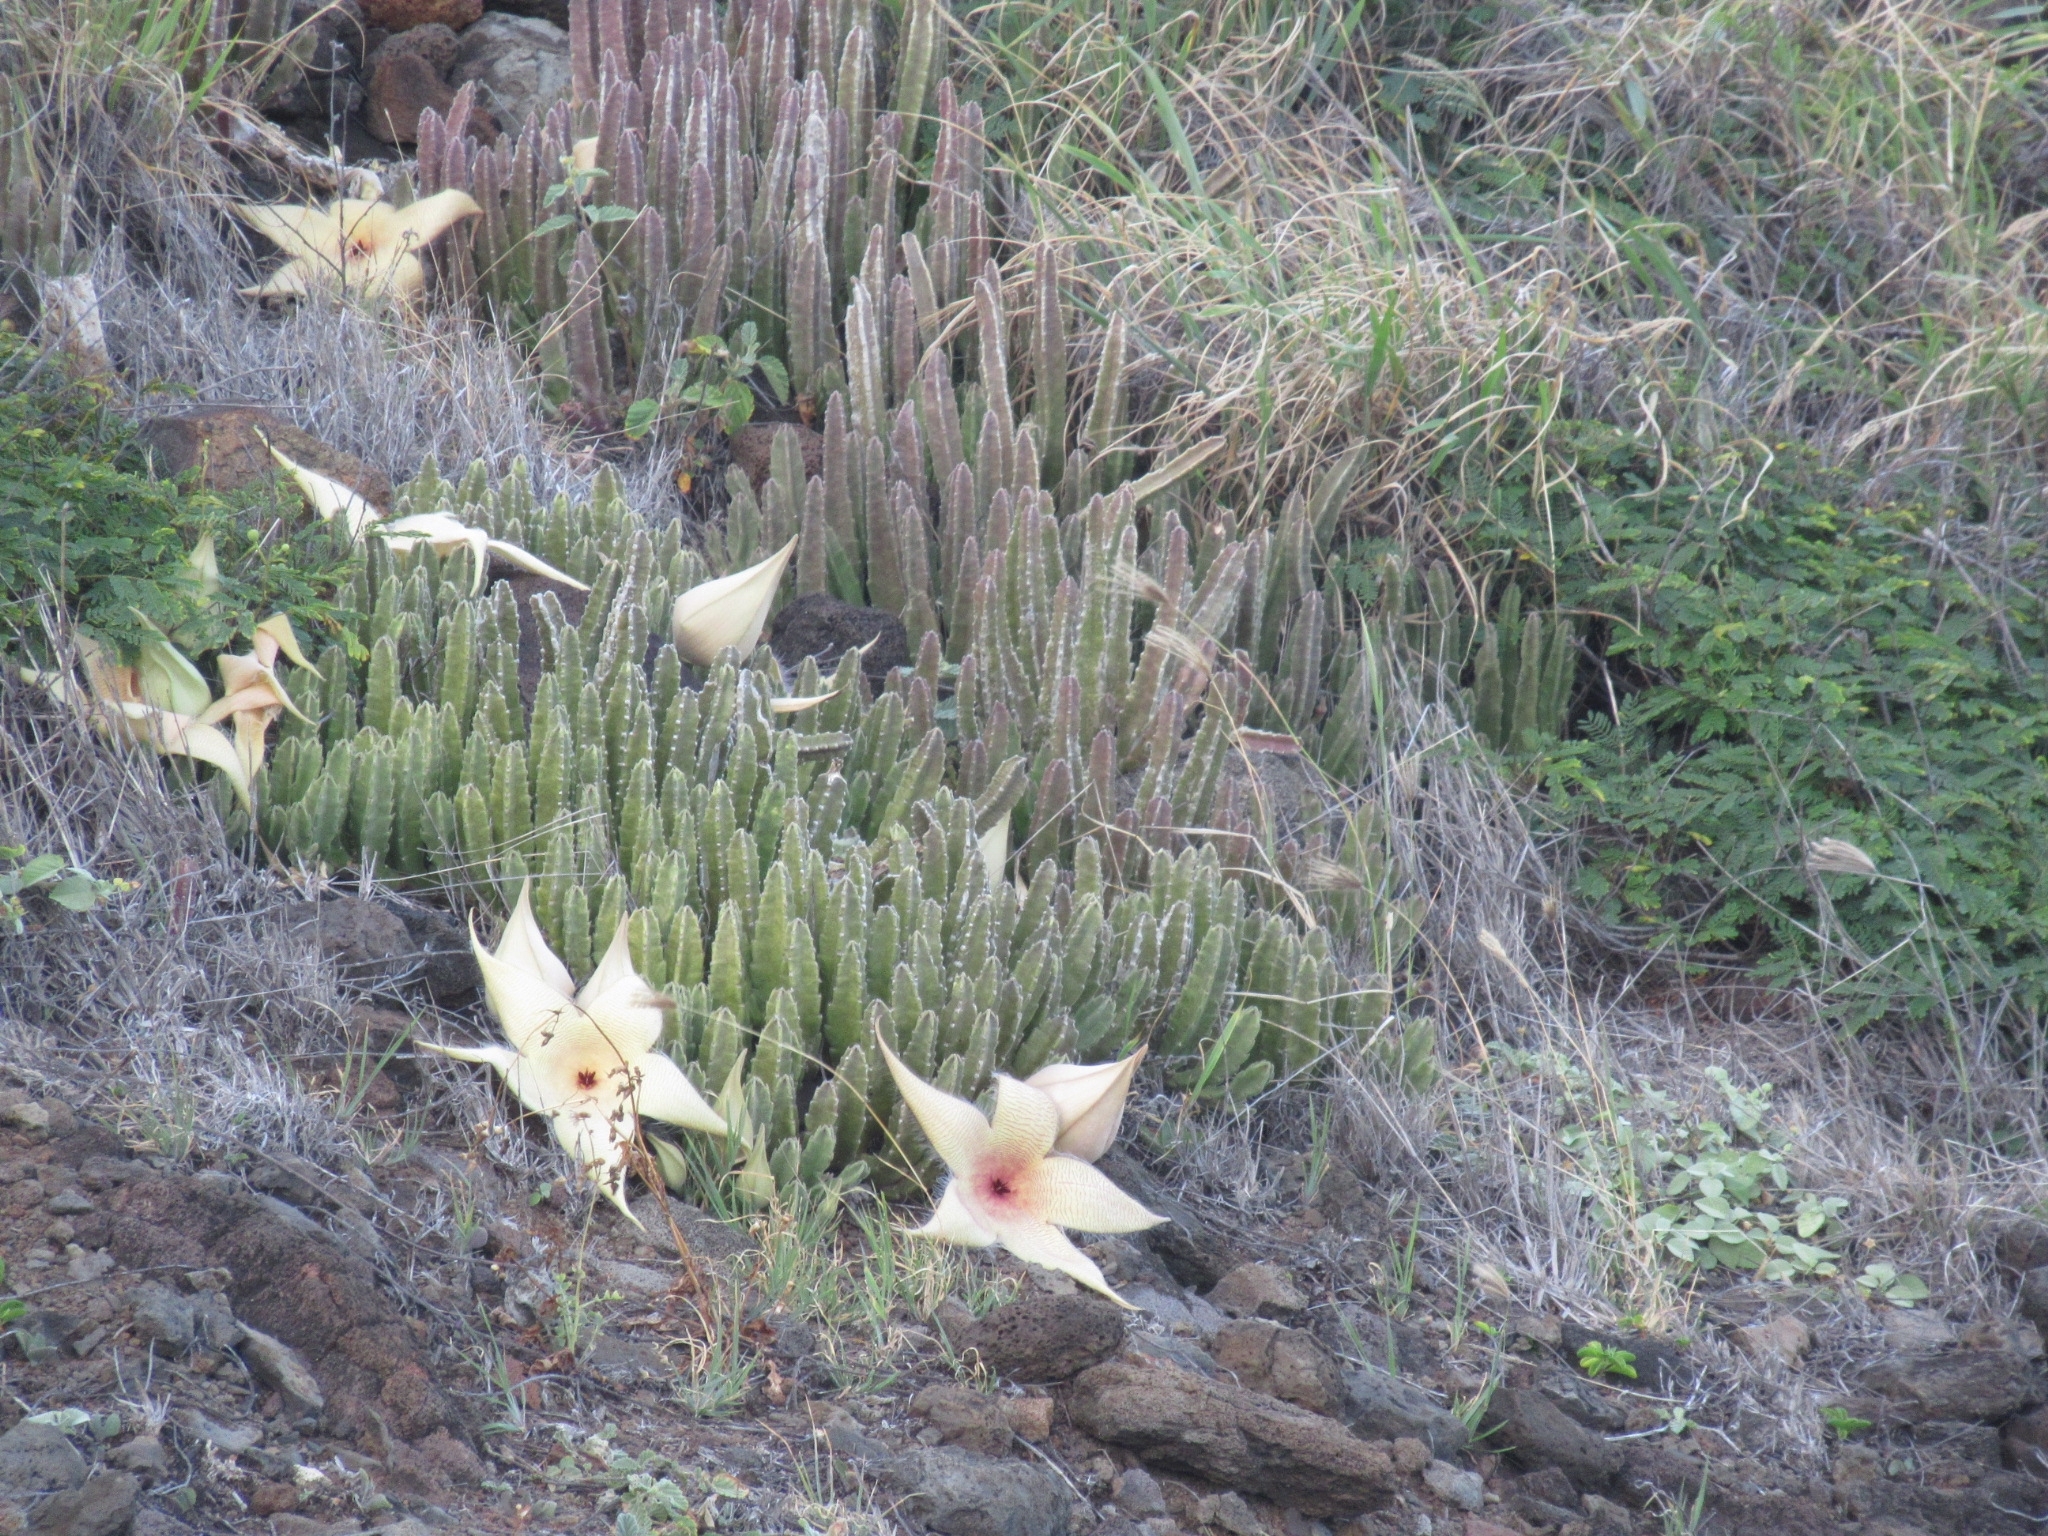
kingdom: Plantae
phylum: Tracheophyta
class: Magnoliopsida
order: Gentianales
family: Apocynaceae
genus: Ceropegia
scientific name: Ceropegia gigantea
